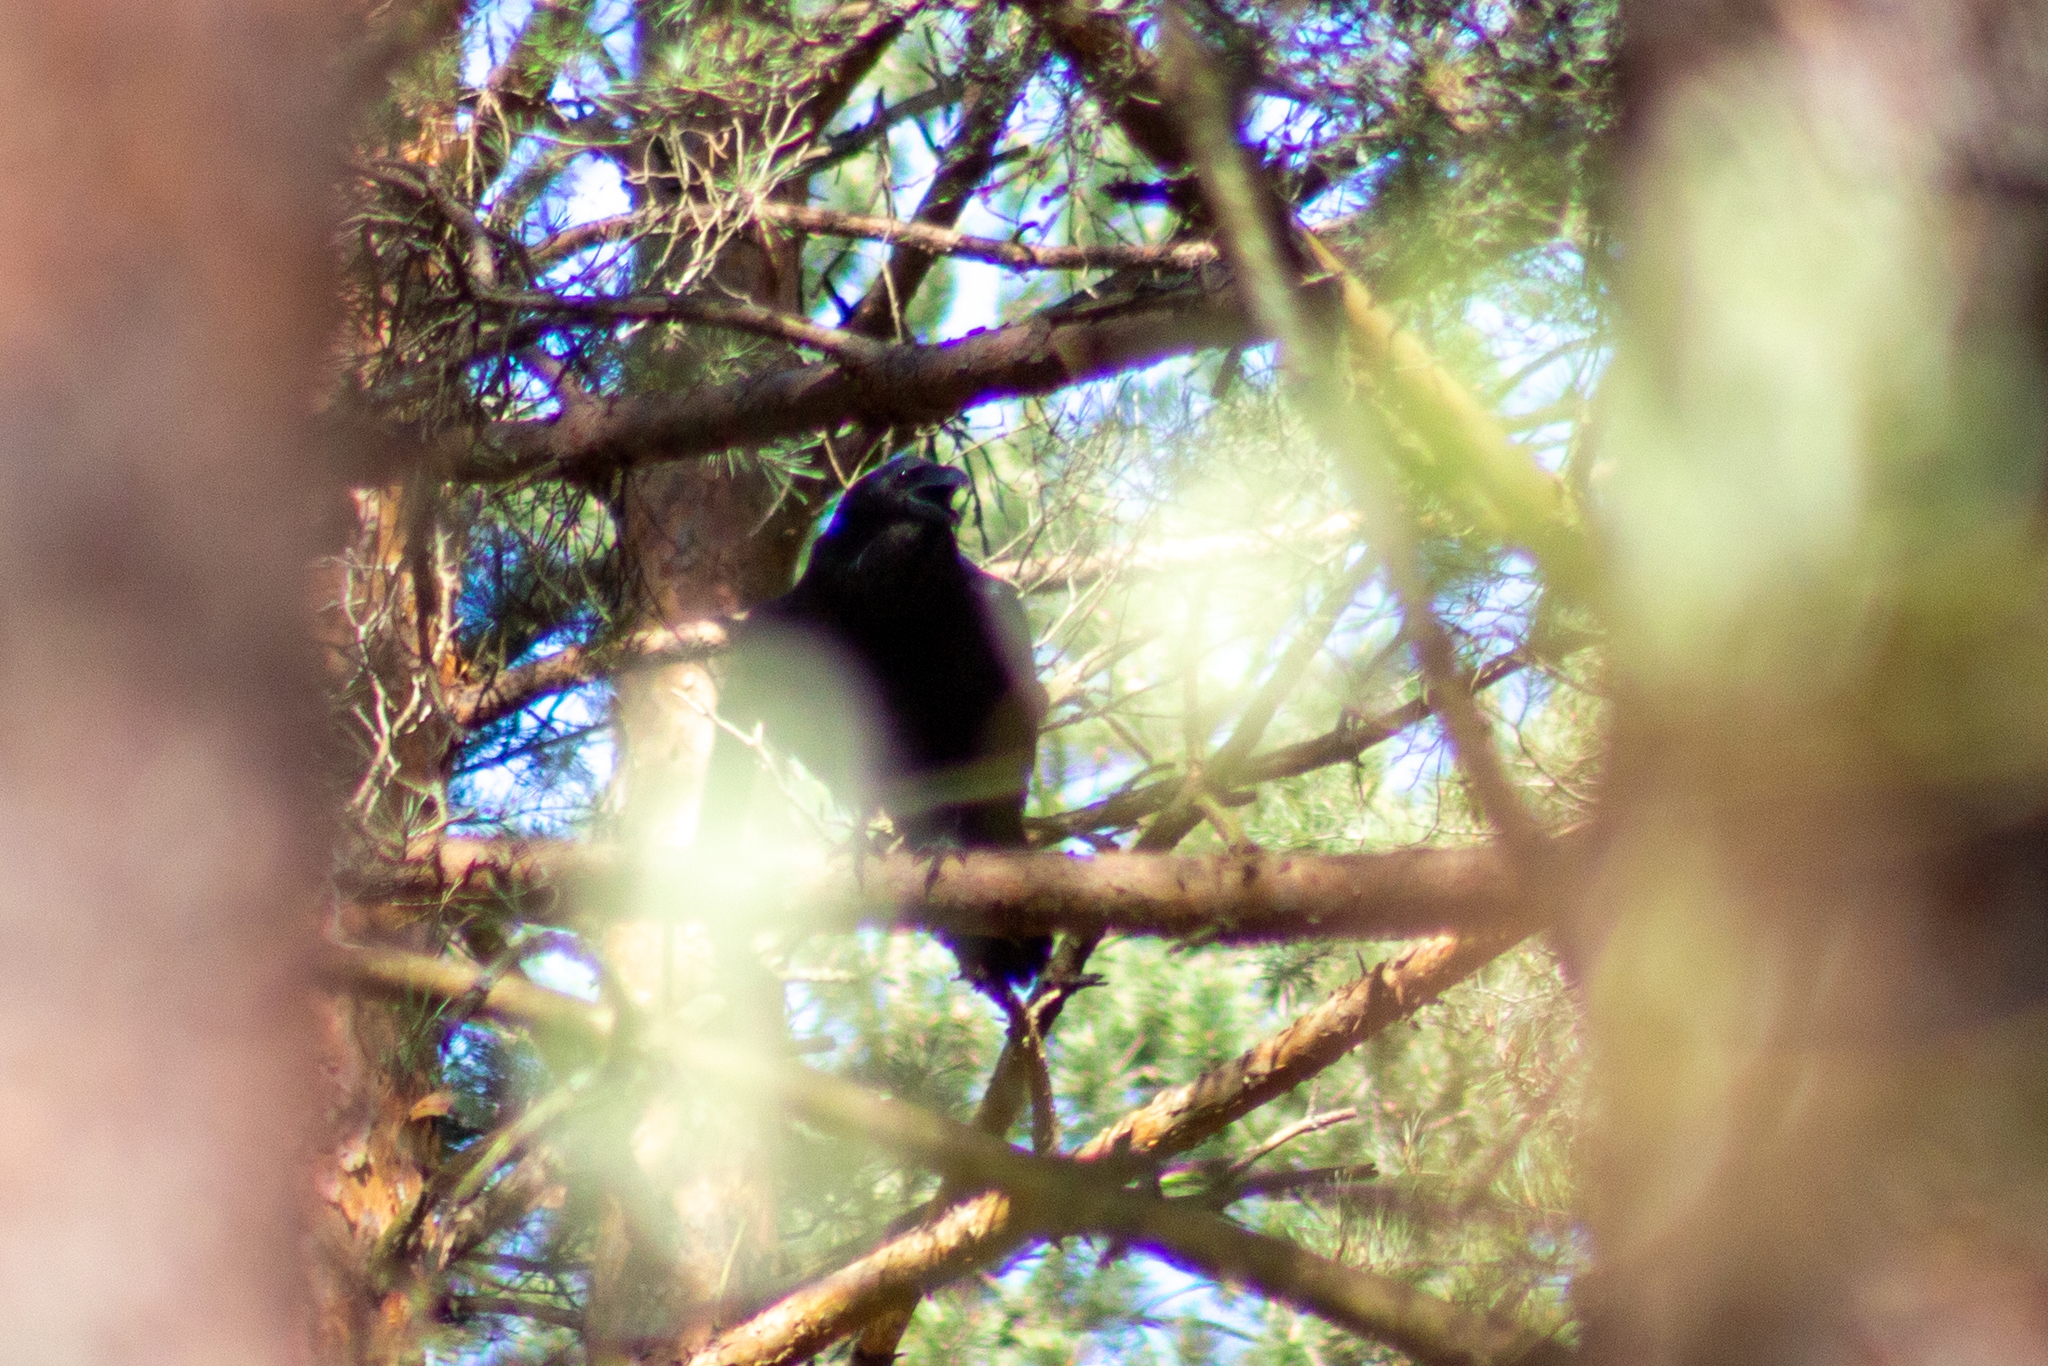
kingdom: Animalia
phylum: Chordata
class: Aves
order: Passeriformes
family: Corvidae
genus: Corvus
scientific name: Corvus corax
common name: Common raven
